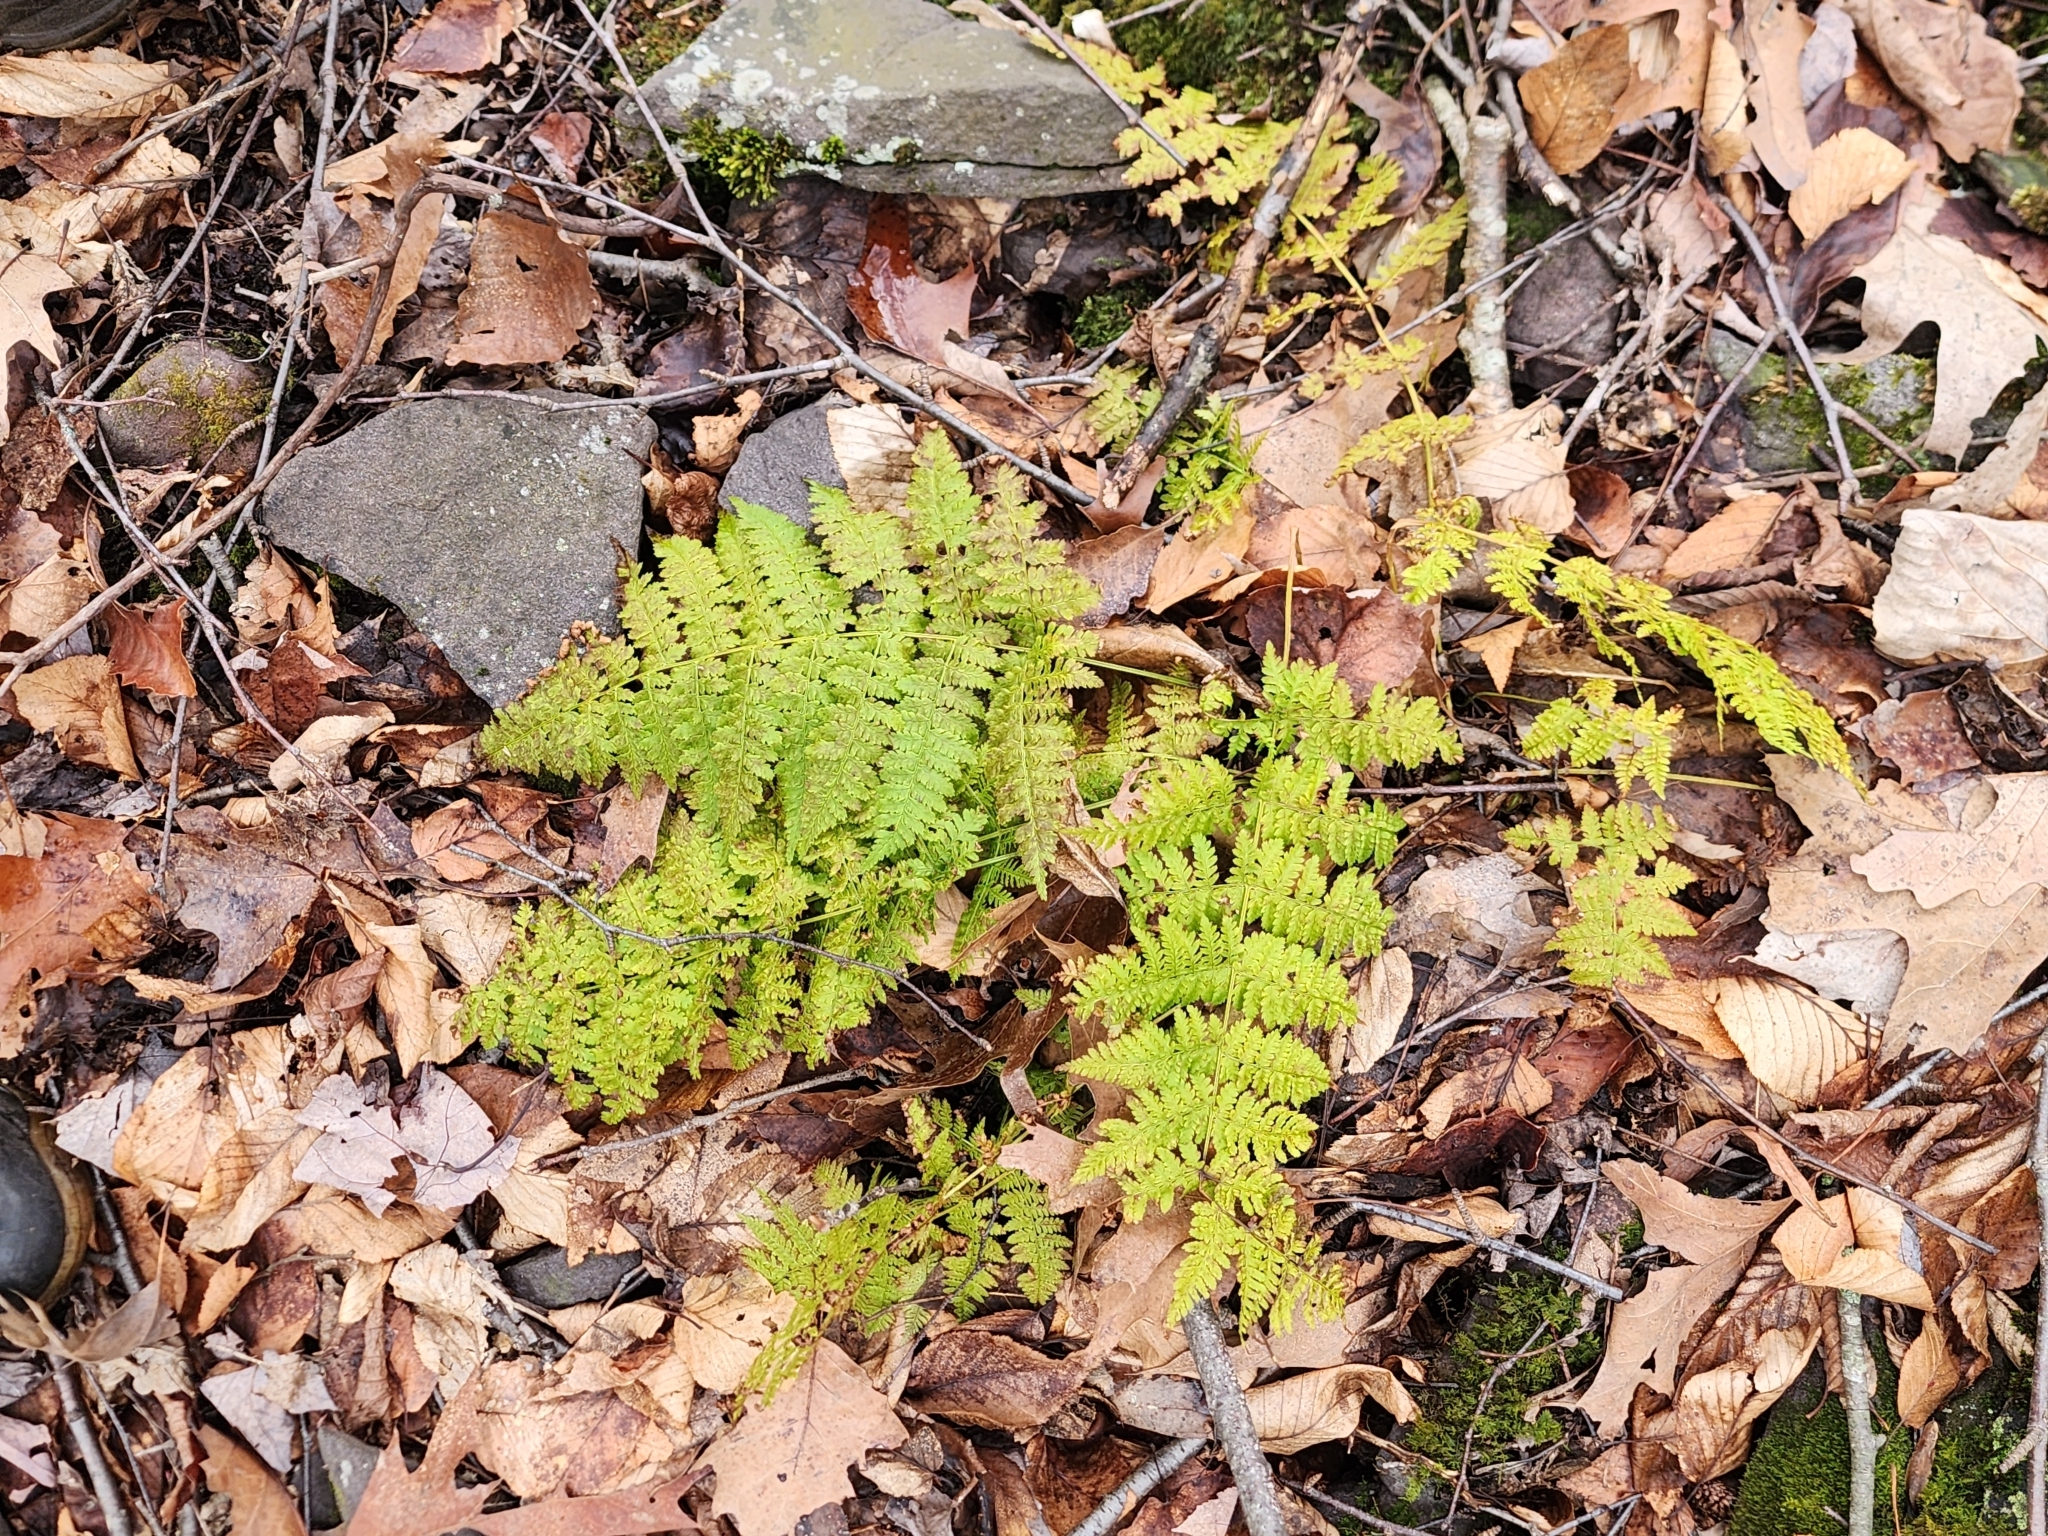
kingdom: Plantae
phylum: Tracheophyta
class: Polypodiopsida
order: Polypodiales
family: Dryopteridaceae
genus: Dryopteris
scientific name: Dryopteris intermedia
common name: Evergreen wood fern
